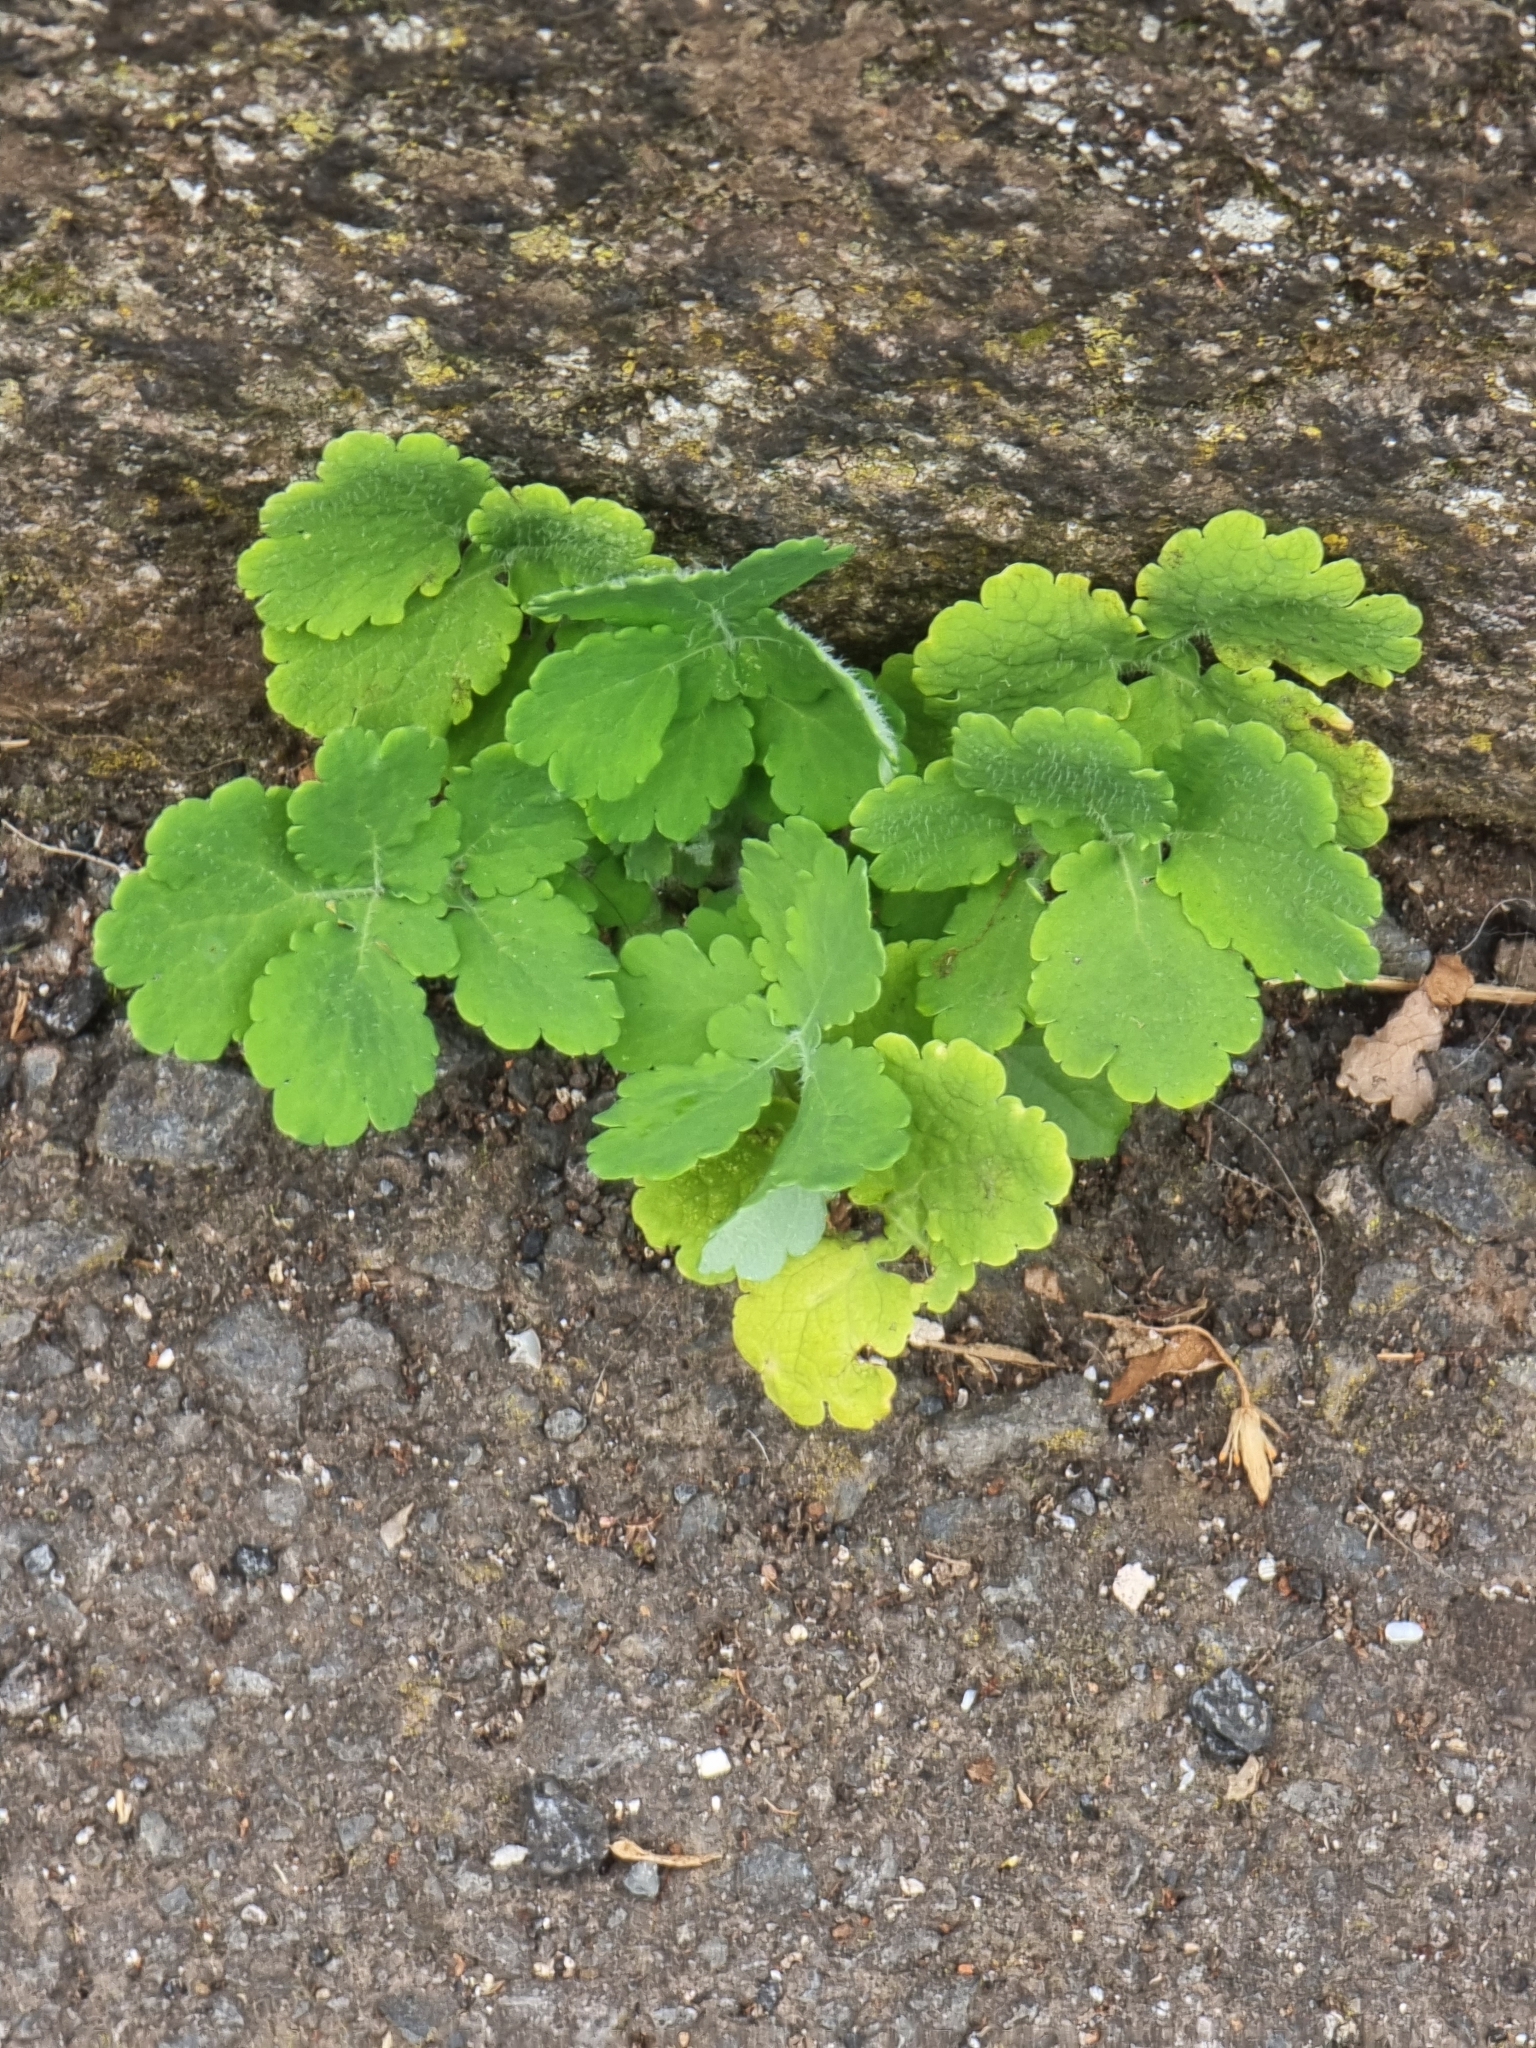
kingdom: Plantae
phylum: Tracheophyta
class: Magnoliopsida
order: Ranunculales
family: Papaveraceae
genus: Chelidonium
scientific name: Chelidonium majus
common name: Greater celandine
